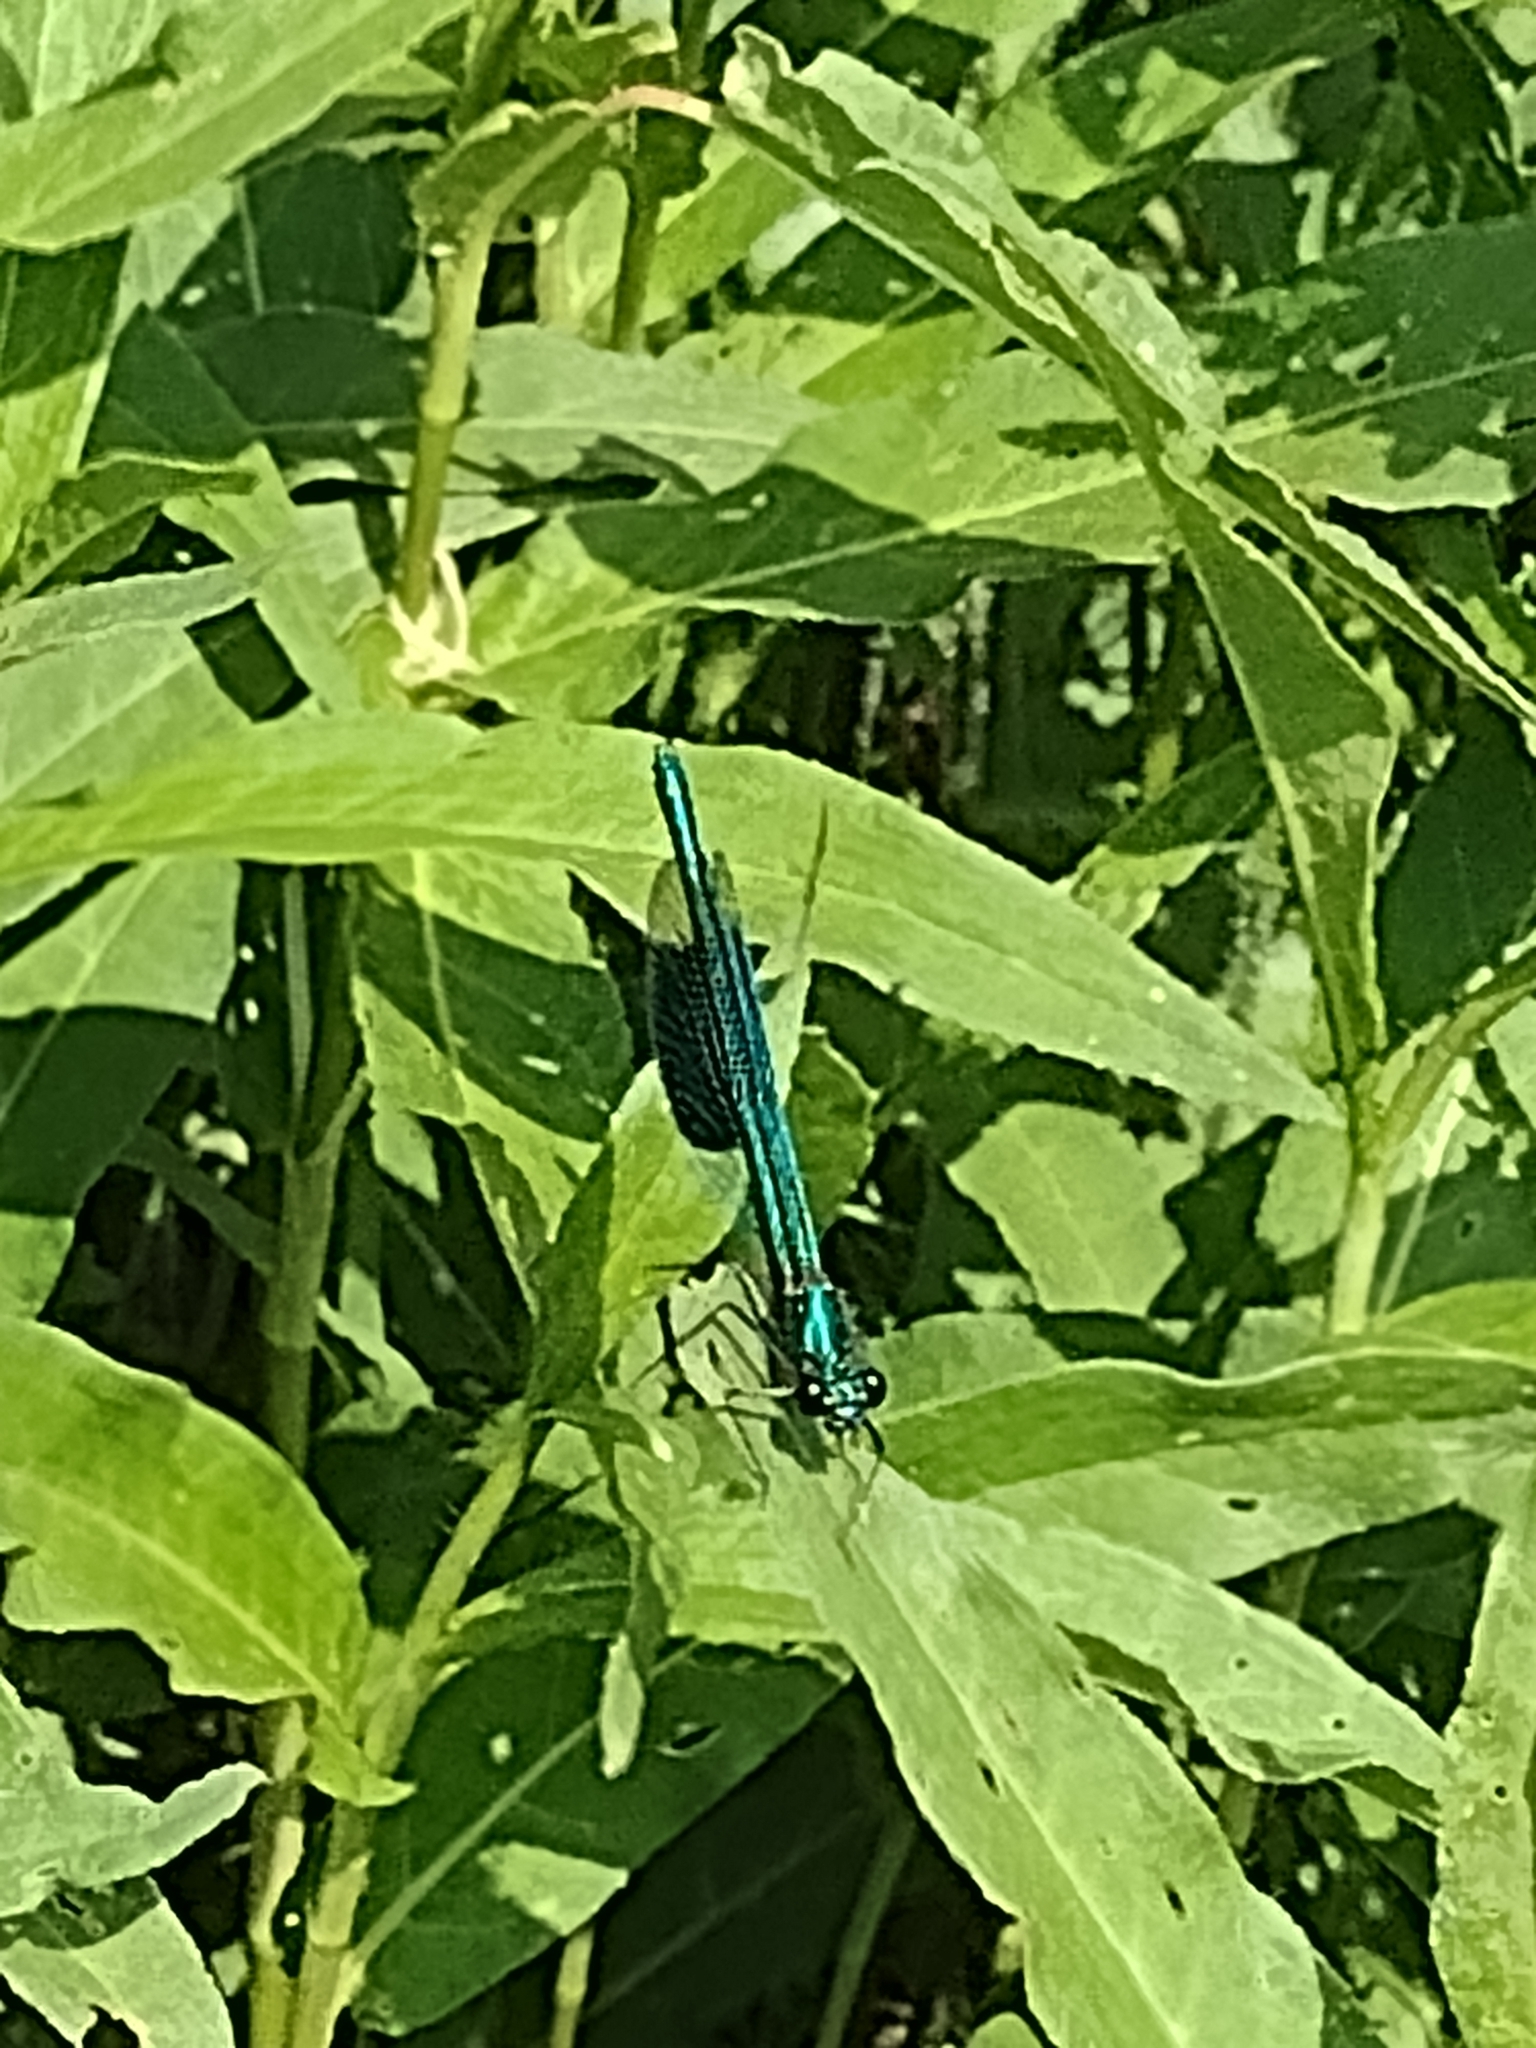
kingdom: Animalia
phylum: Arthropoda
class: Insecta
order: Odonata
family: Calopterygidae
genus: Calopteryx
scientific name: Calopteryx splendens
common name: Banded demoiselle
